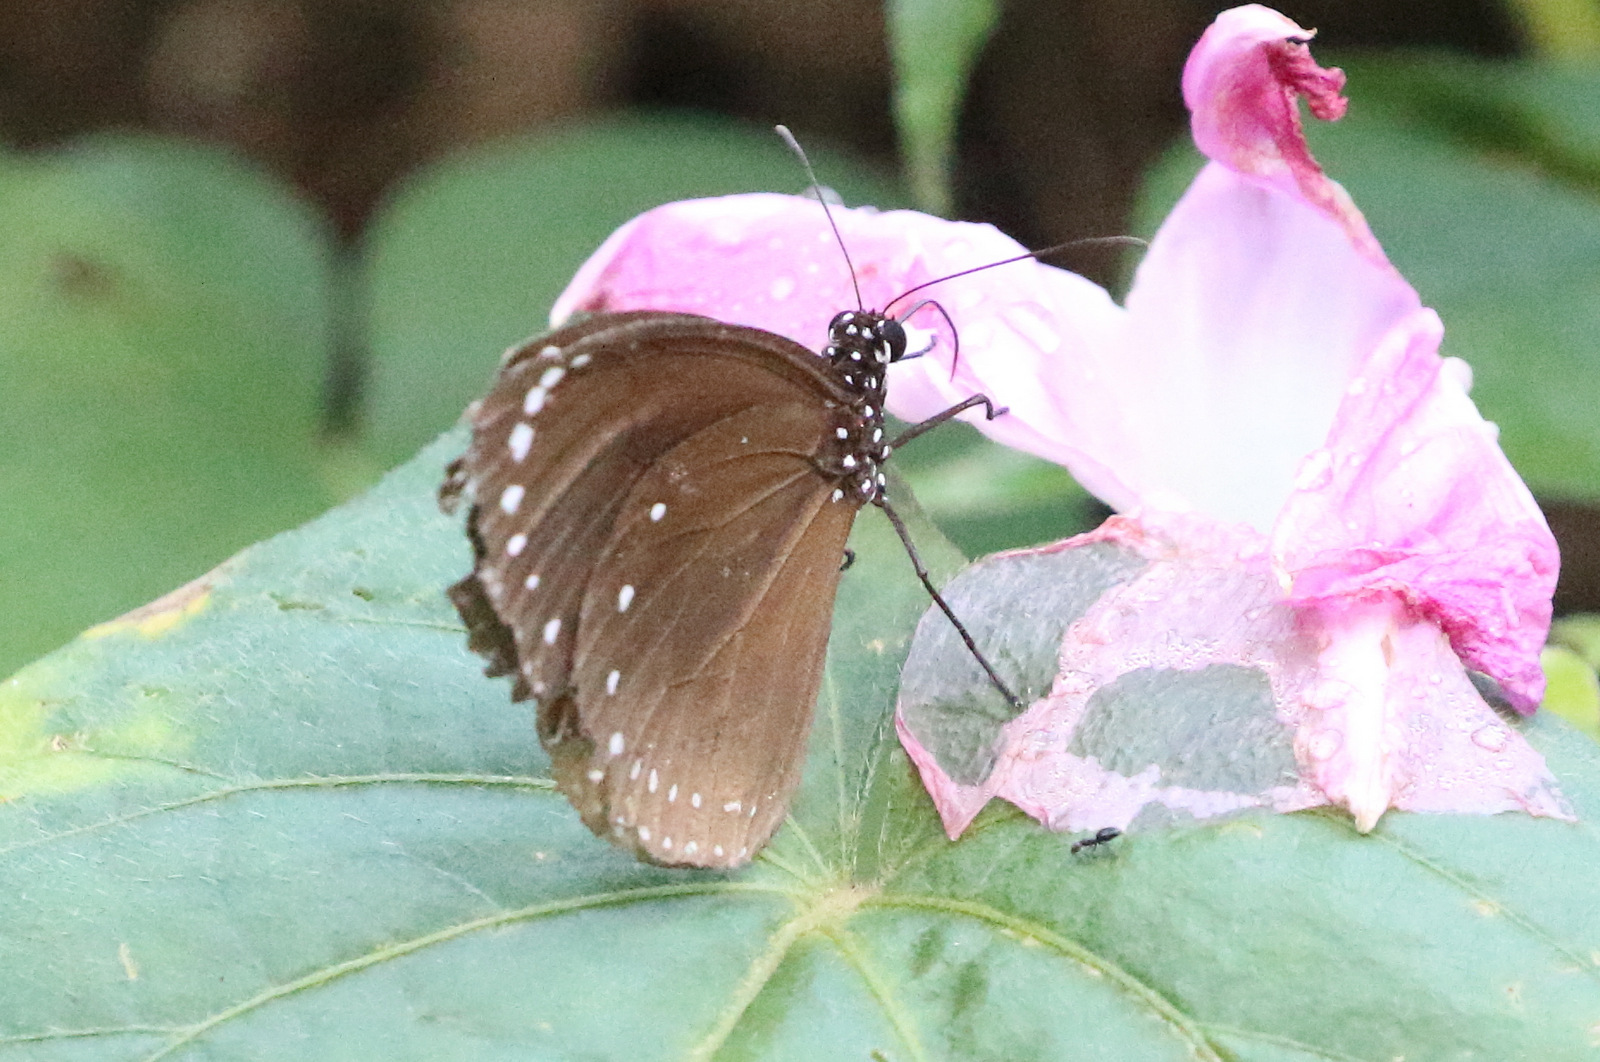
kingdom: Animalia
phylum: Arthropoda
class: Insecta
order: Lepidoptera
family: Nymphalidae
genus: Euploea
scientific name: Euploea tulliolus
